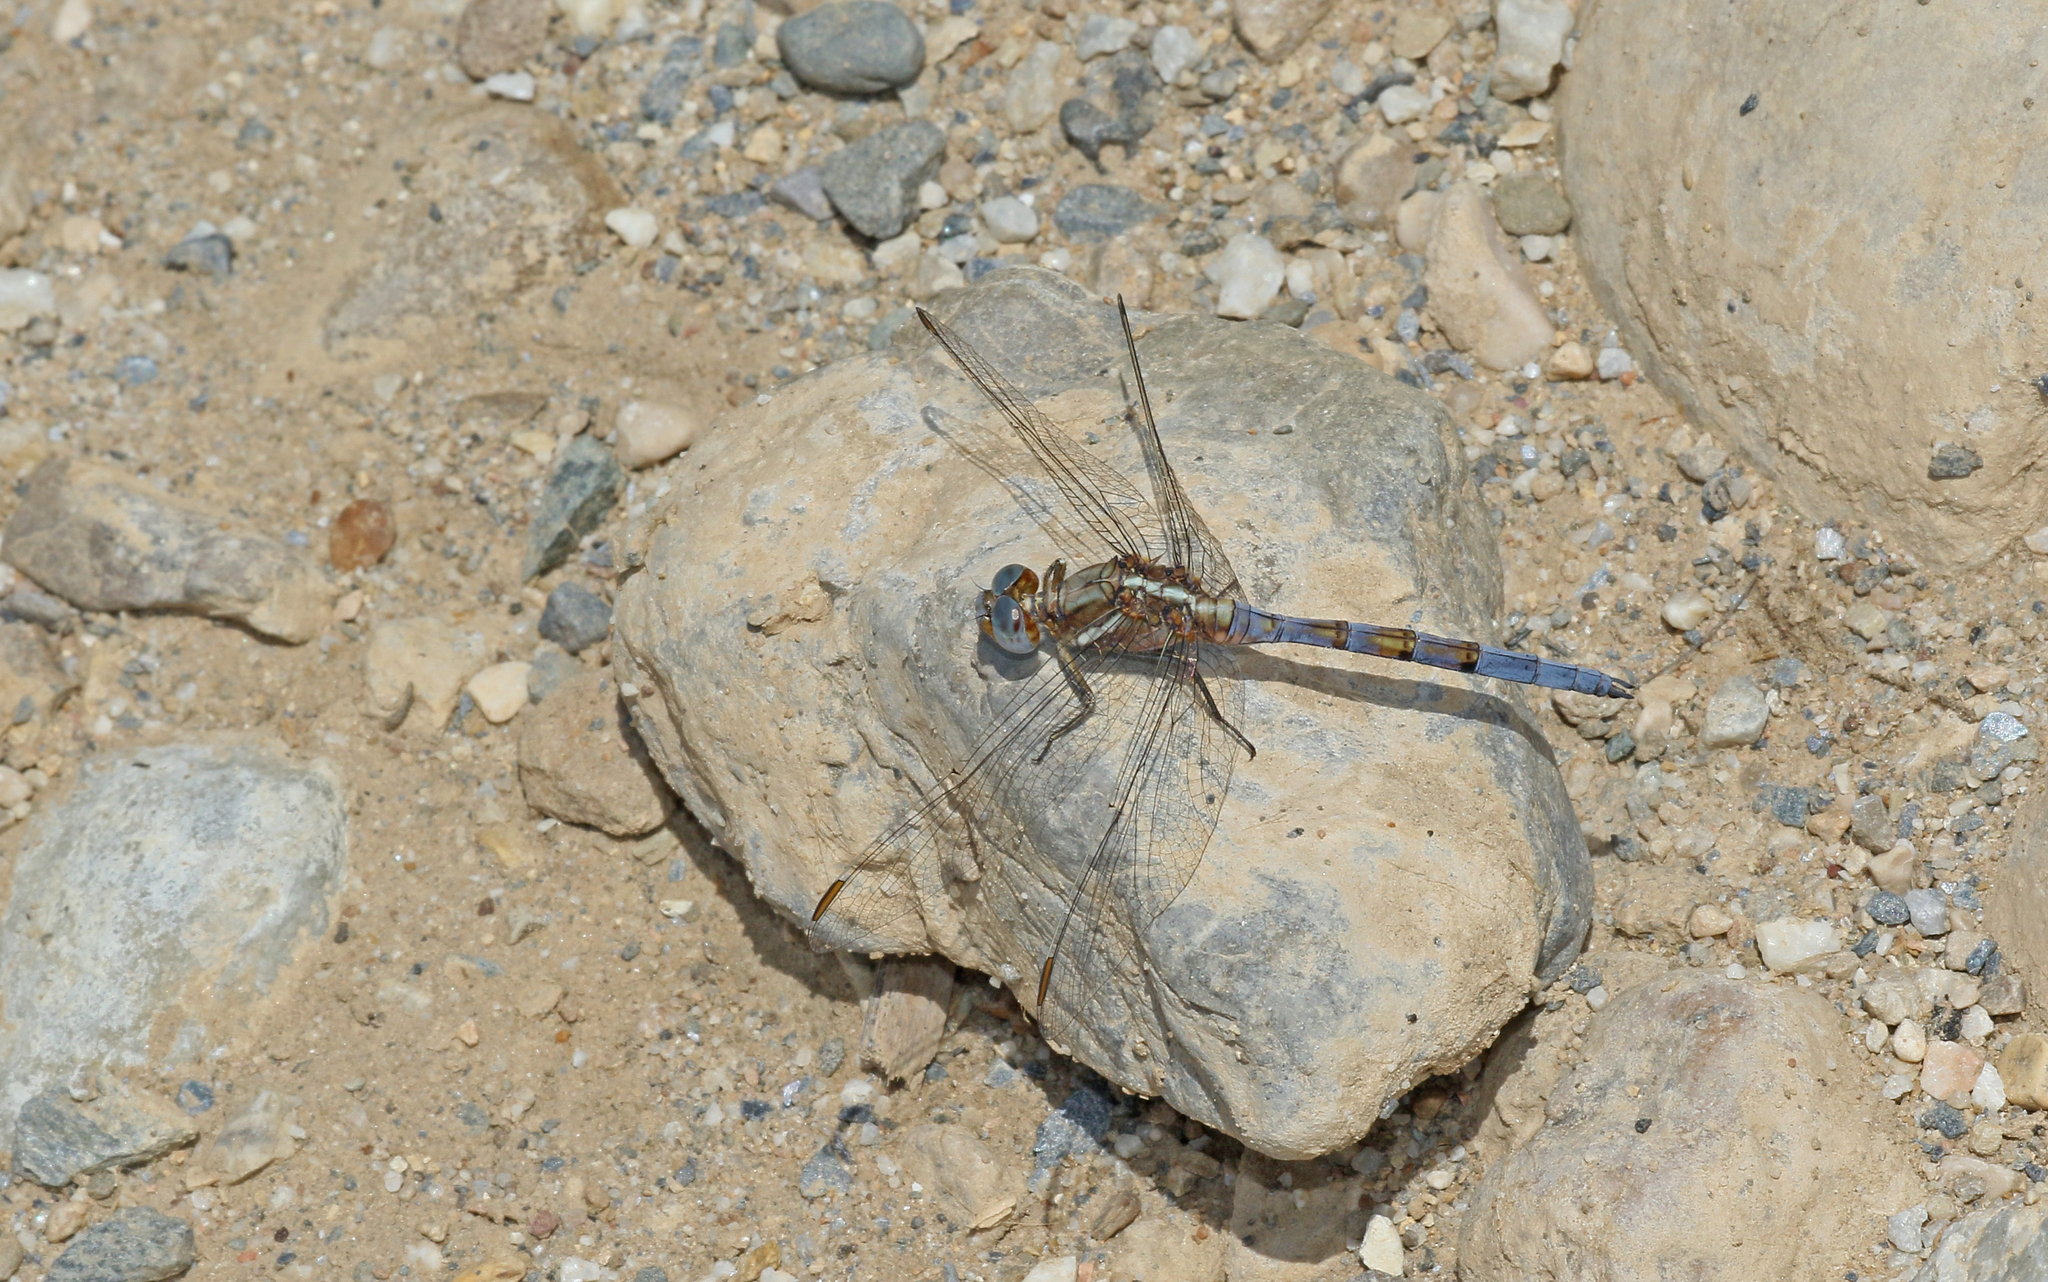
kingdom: Animalia
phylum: Arthropoda
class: Insecta
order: Odonata
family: Libellulidae
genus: Orthetrum
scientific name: Orthetrum chrysostigma
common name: Epaulet skimmer
